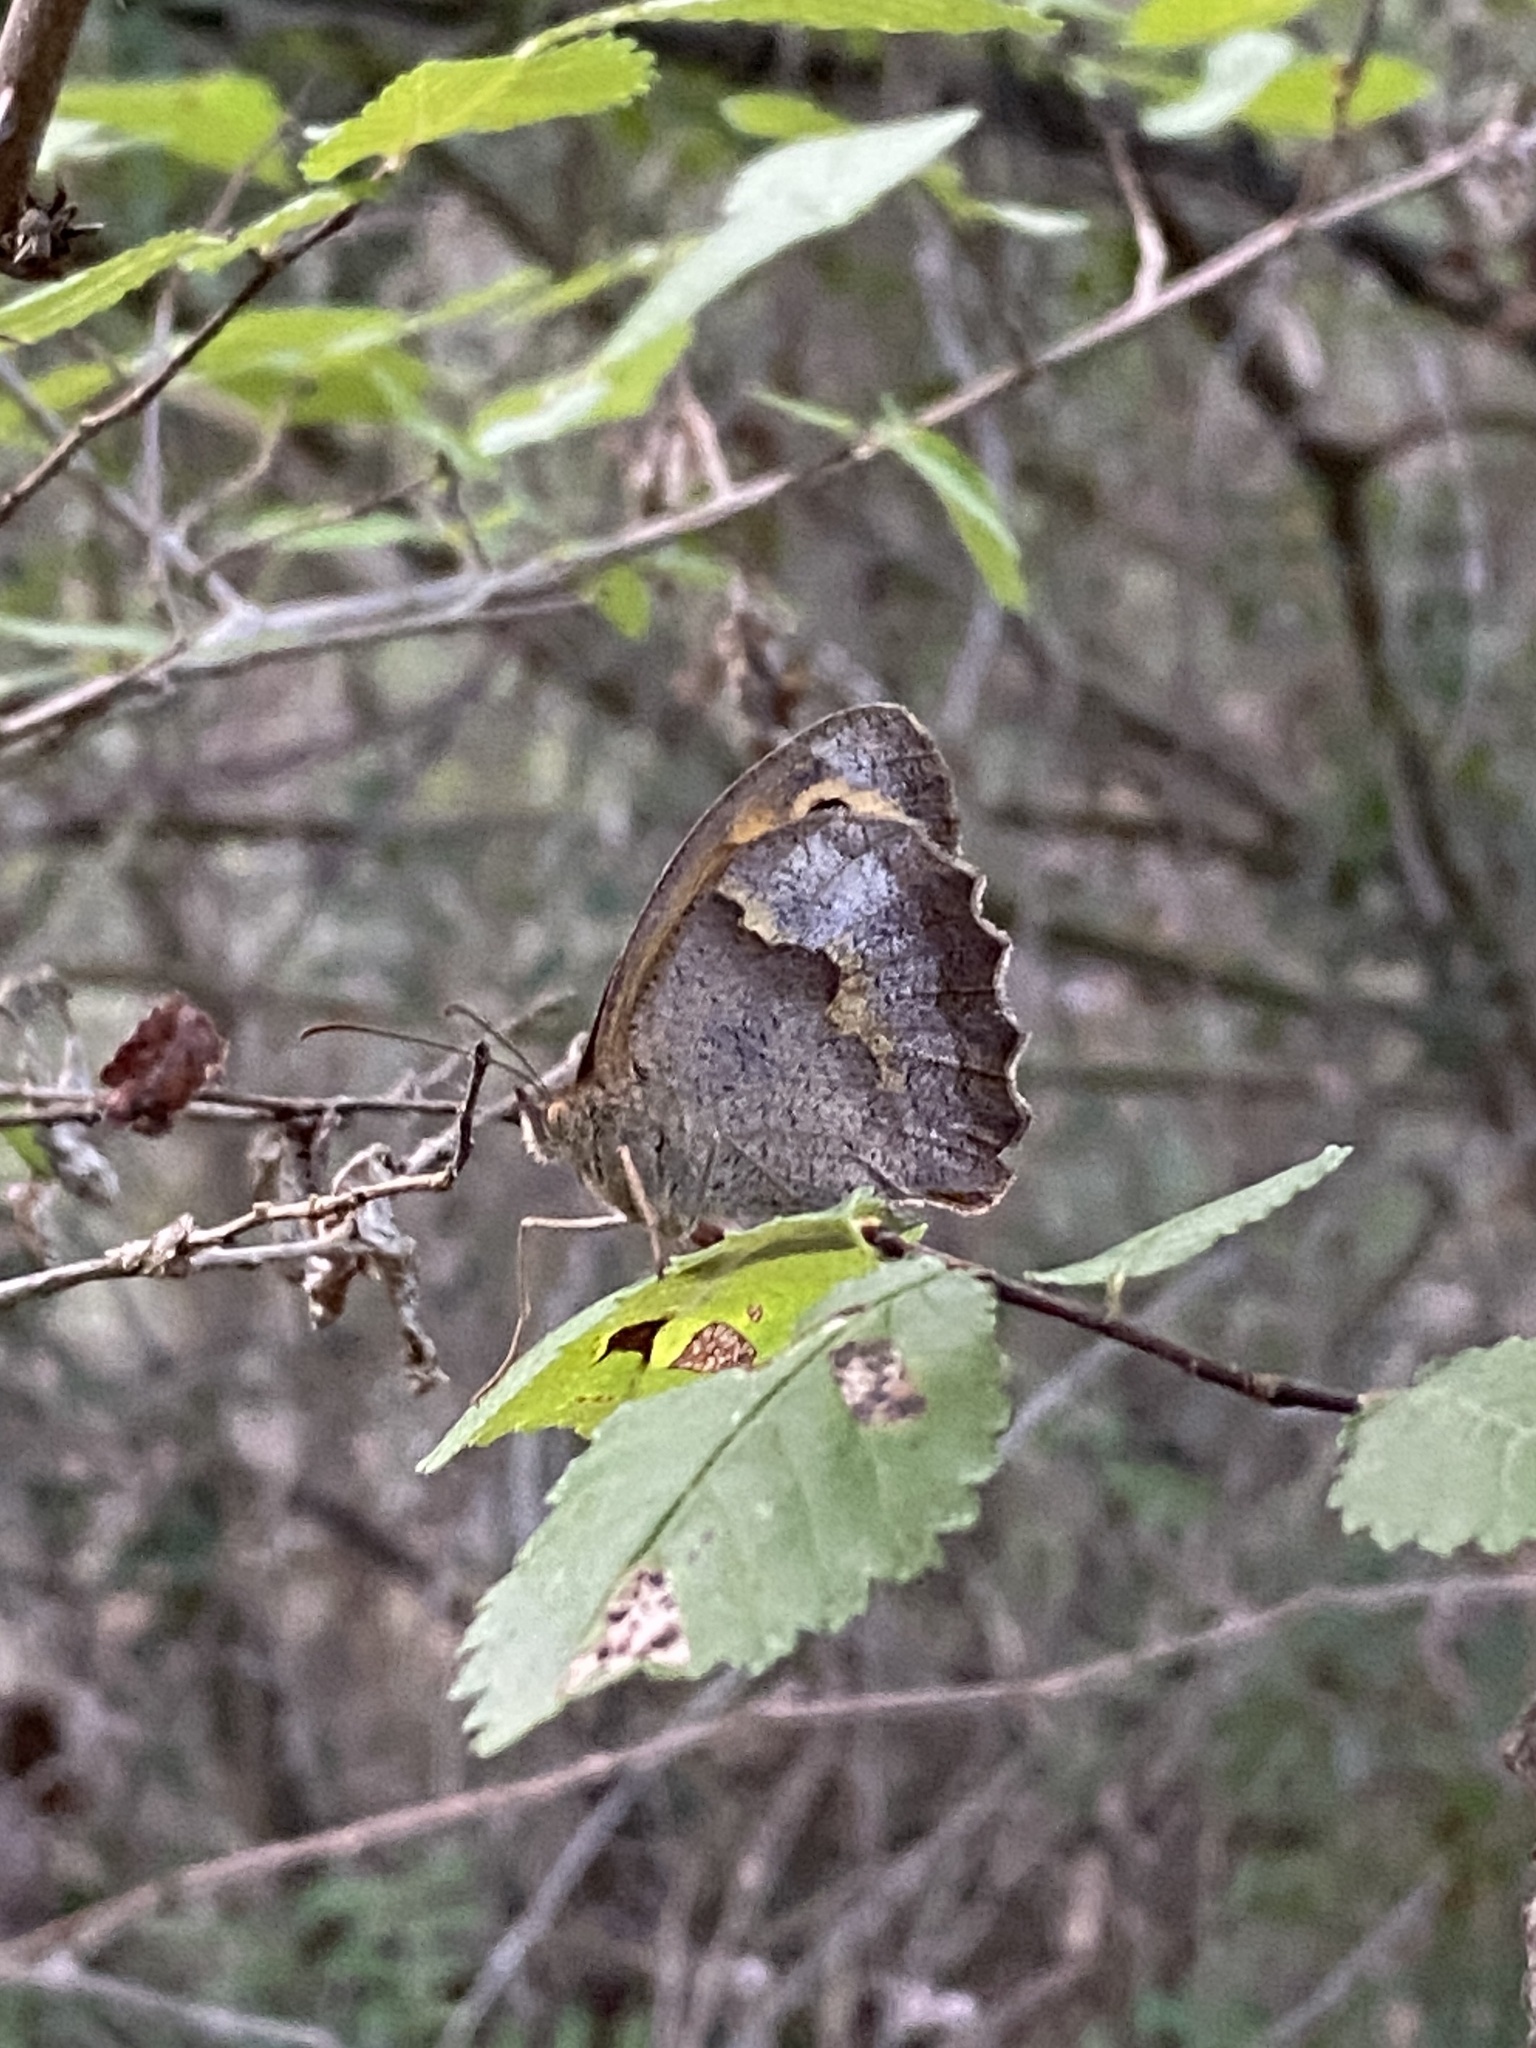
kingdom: Animalia
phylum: Arthropoda
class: Insecta
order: Lepidoptera
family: Nymphalidae
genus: Maniola
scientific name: Maniola jurtina
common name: Meadow brown
